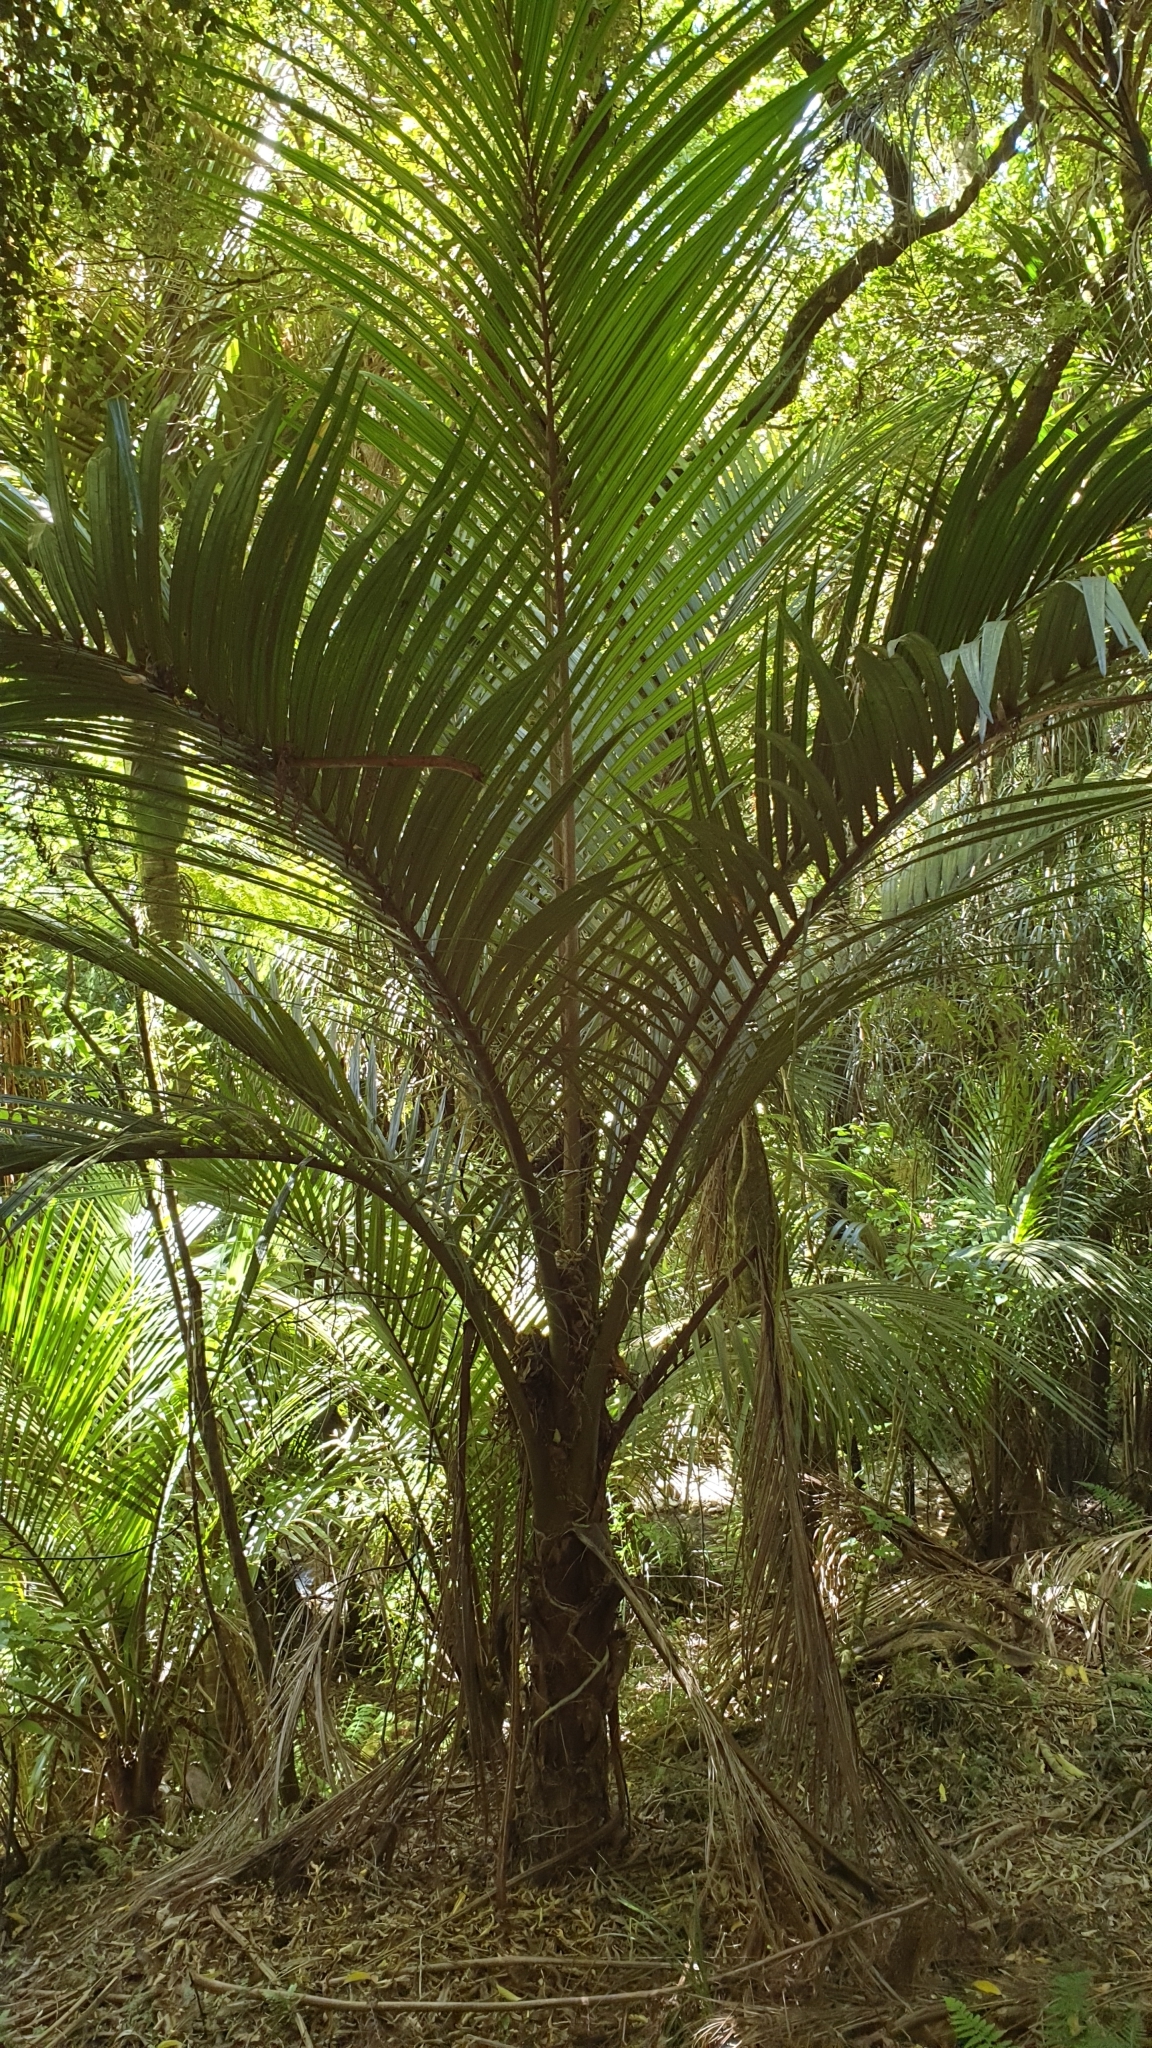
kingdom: Plantae
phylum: Tracheophyta
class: Liliopsida
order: Arecales
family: Arecaceae
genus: Rhopalostylis
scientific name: Rhopalostylis sapida
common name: Feather-duster palm
